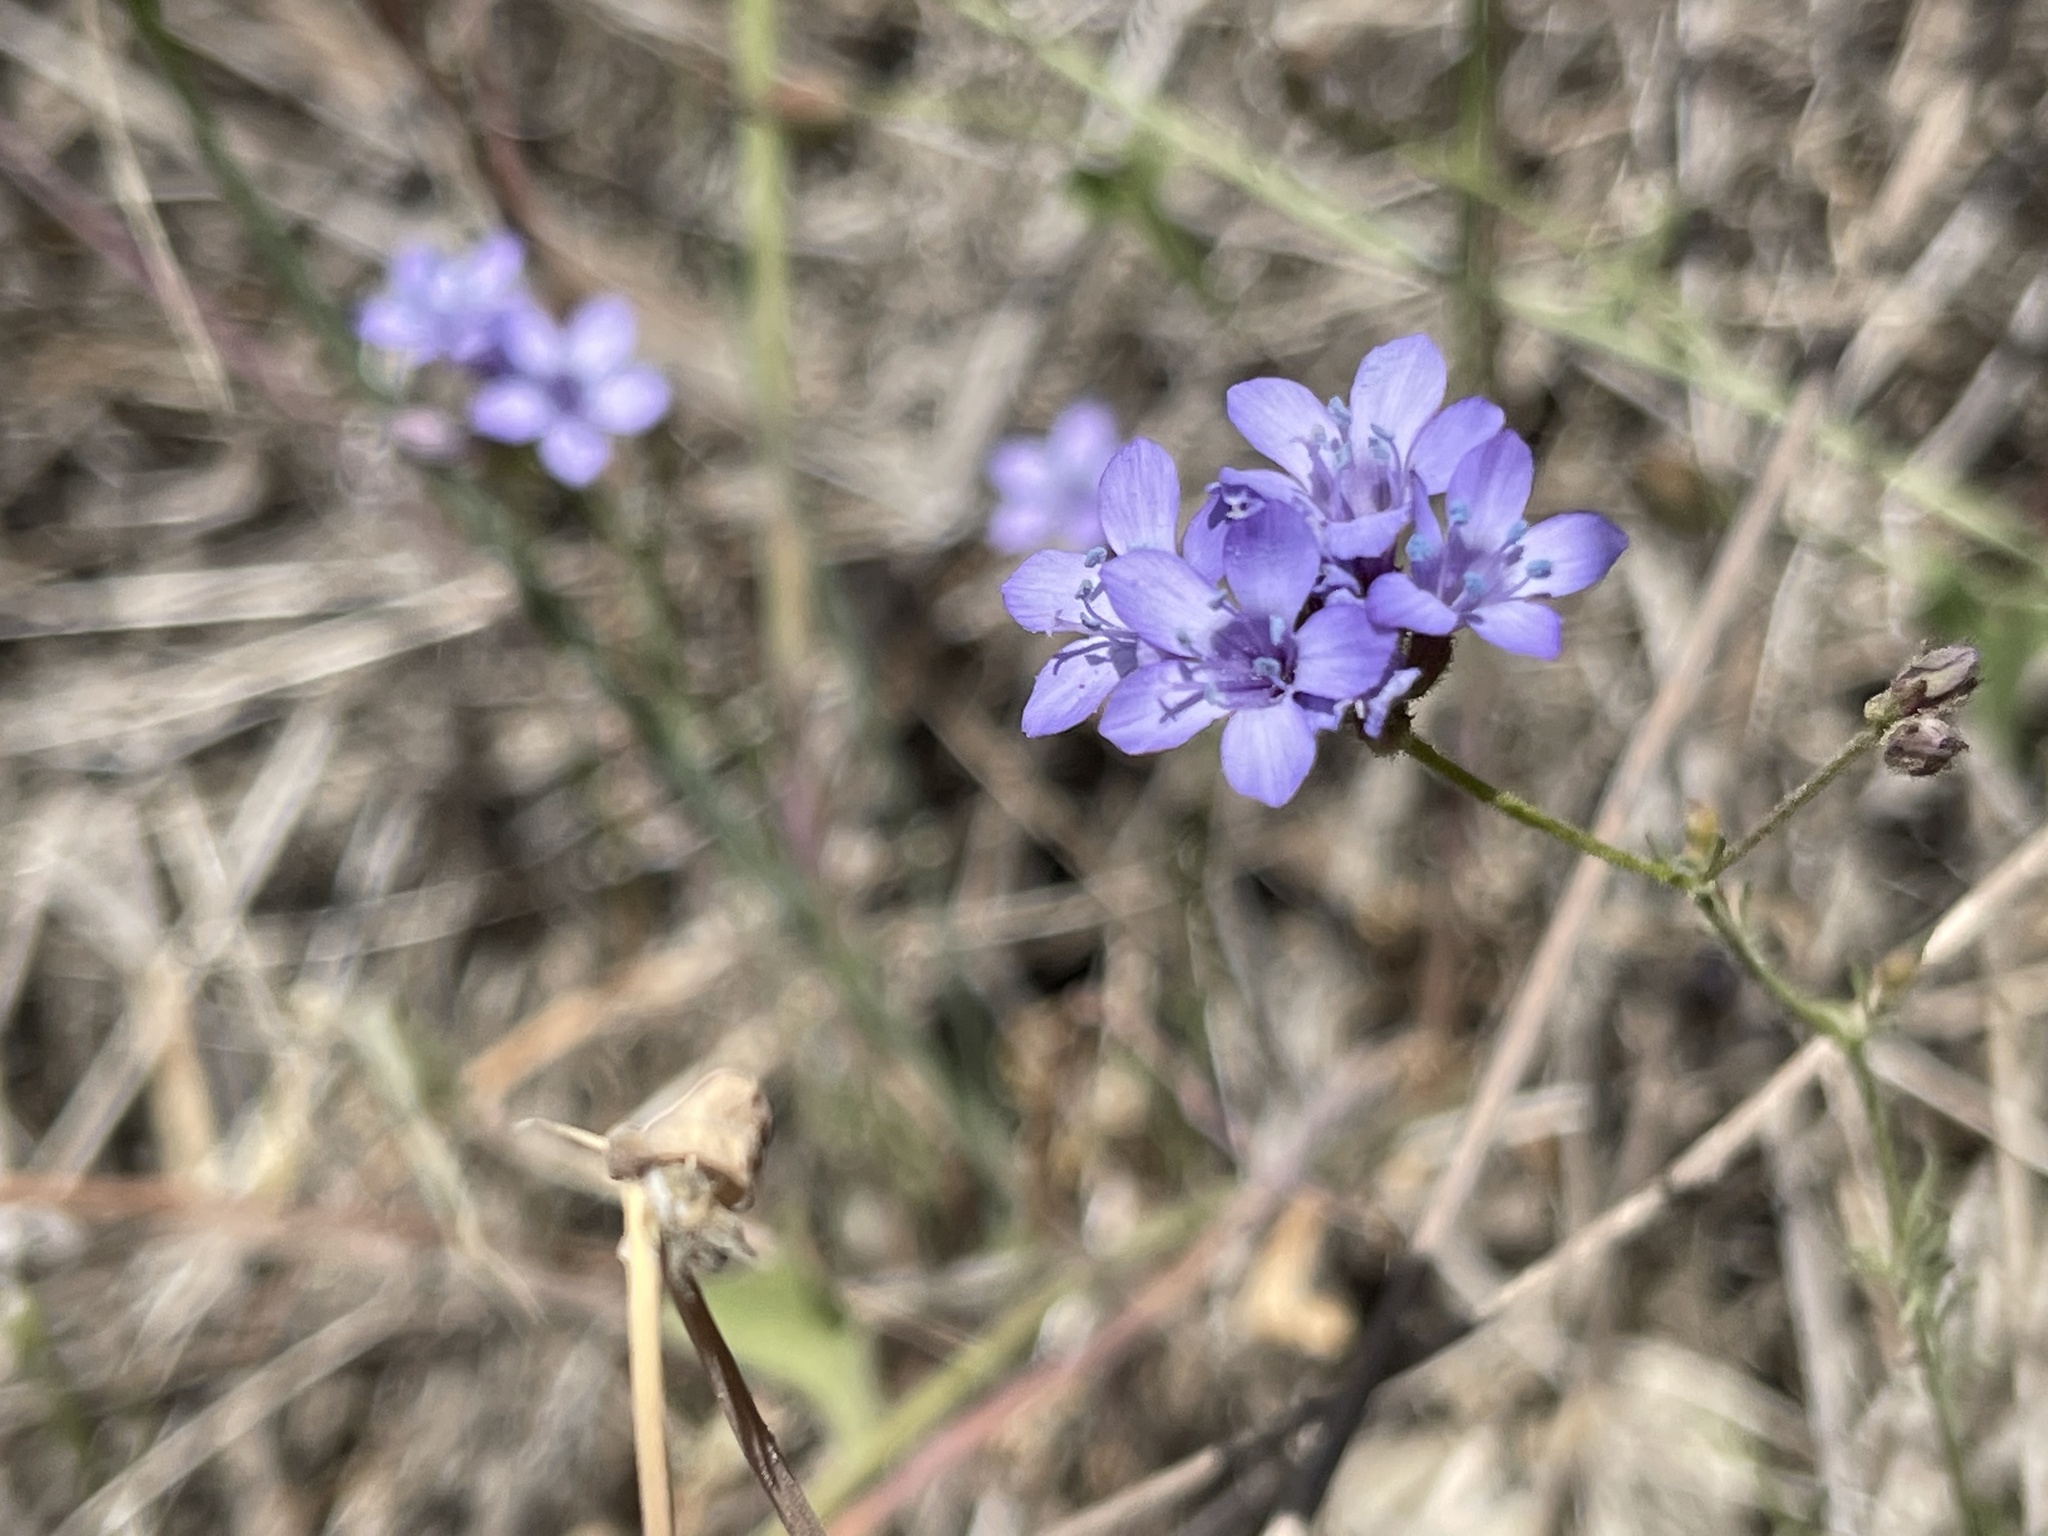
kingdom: Plantae
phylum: Tracheophyta
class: Magnoliopsida
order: Ericales
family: Polemoniaceae
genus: Gilia
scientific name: Gilia achilleifolia
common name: California gily-flower
